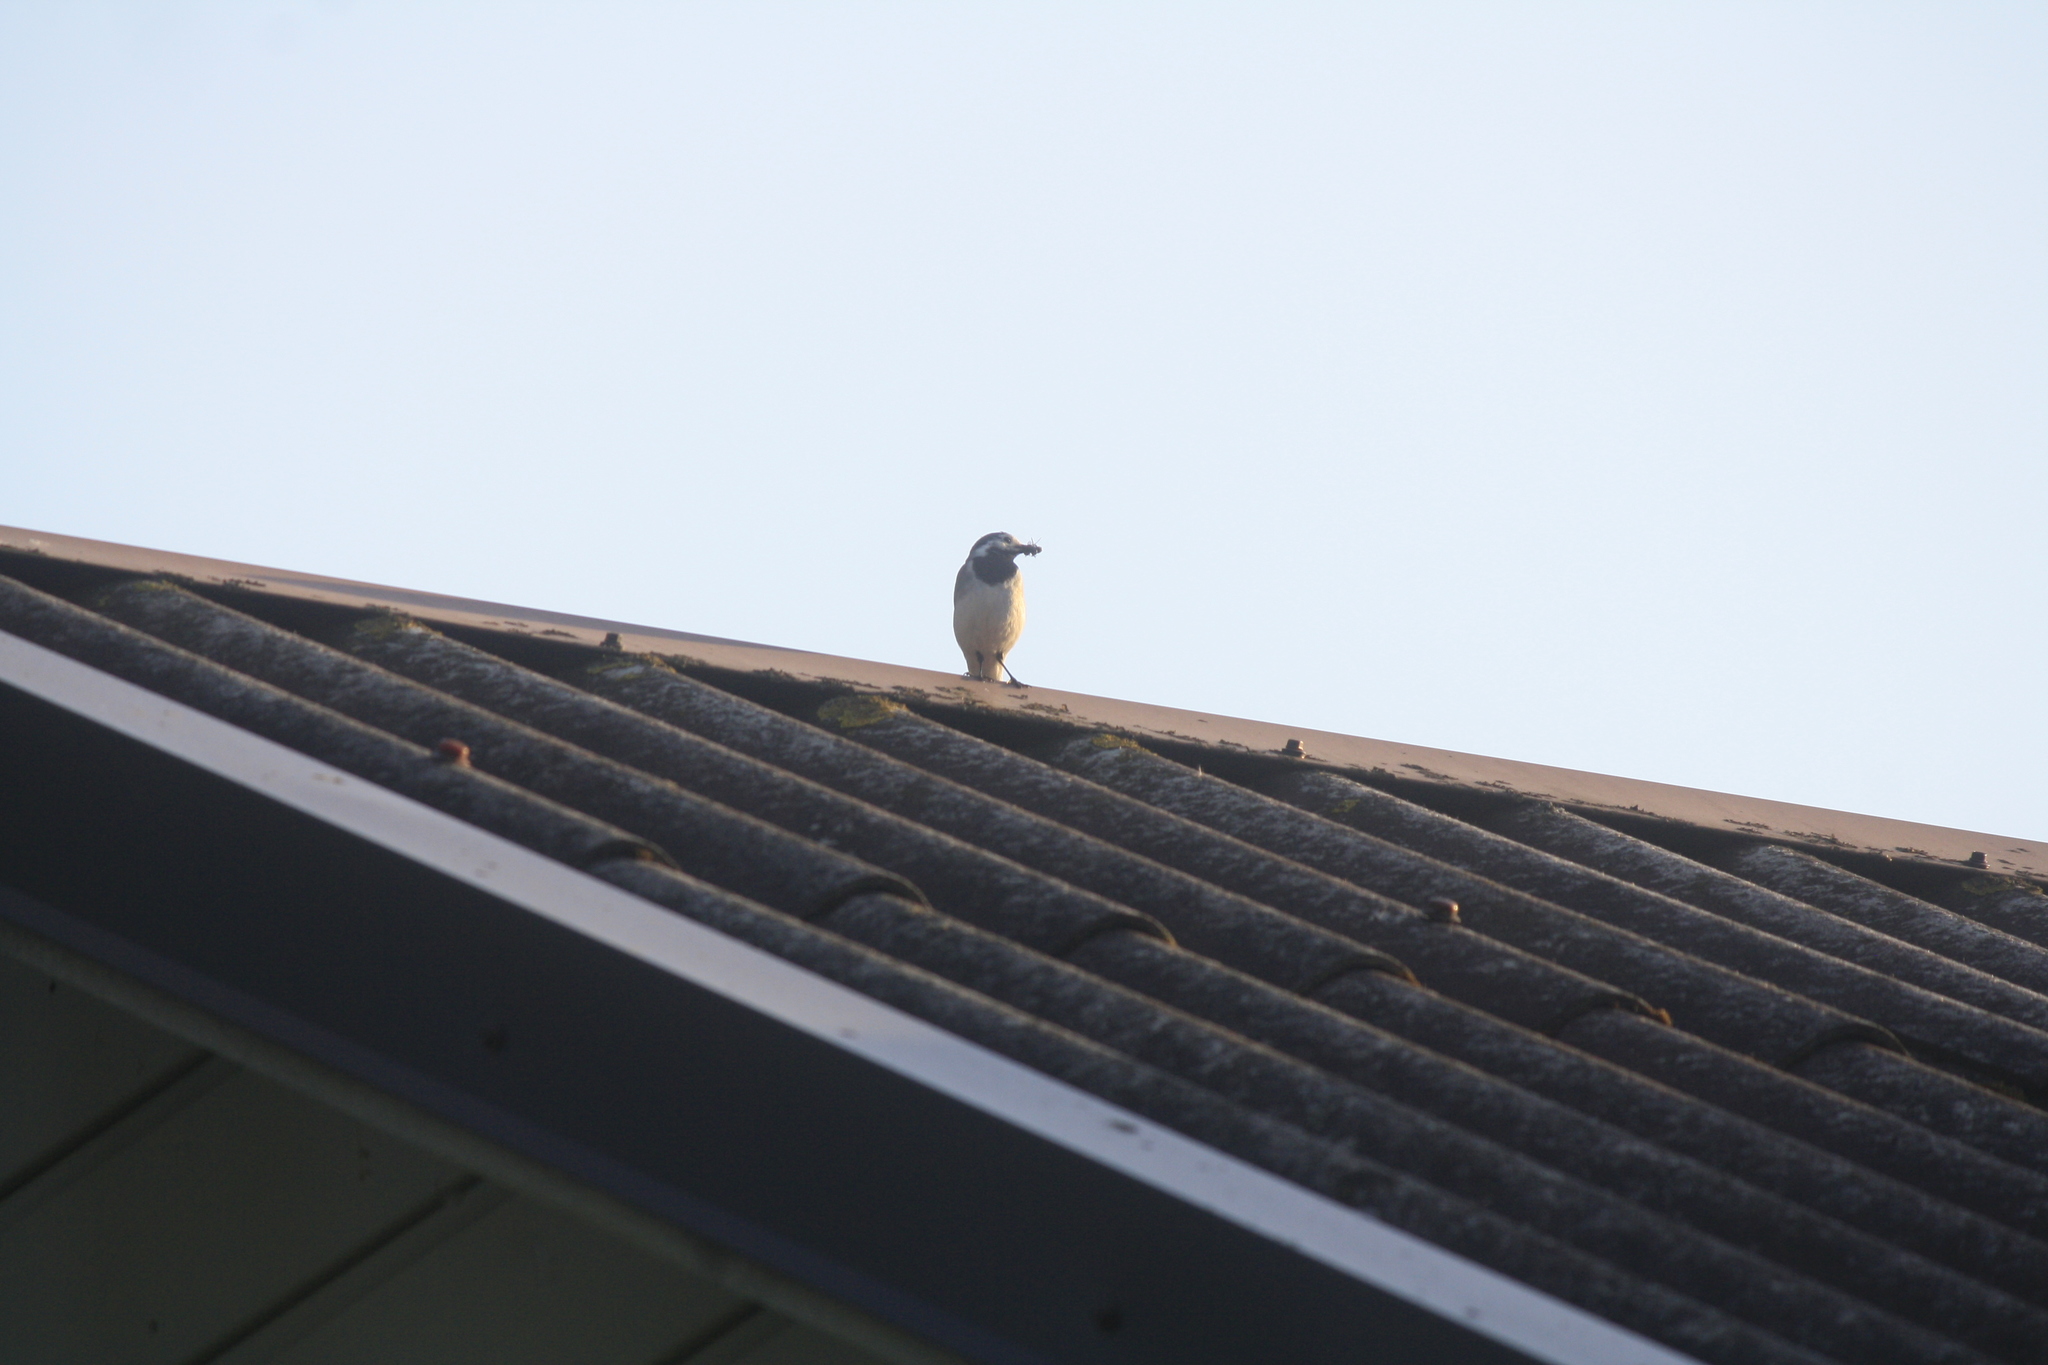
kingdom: Animalia
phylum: Chordata
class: Aves
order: Passeriformes
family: Motacillidae
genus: Motacilla
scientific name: Motacilla alba
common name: White wagtail
